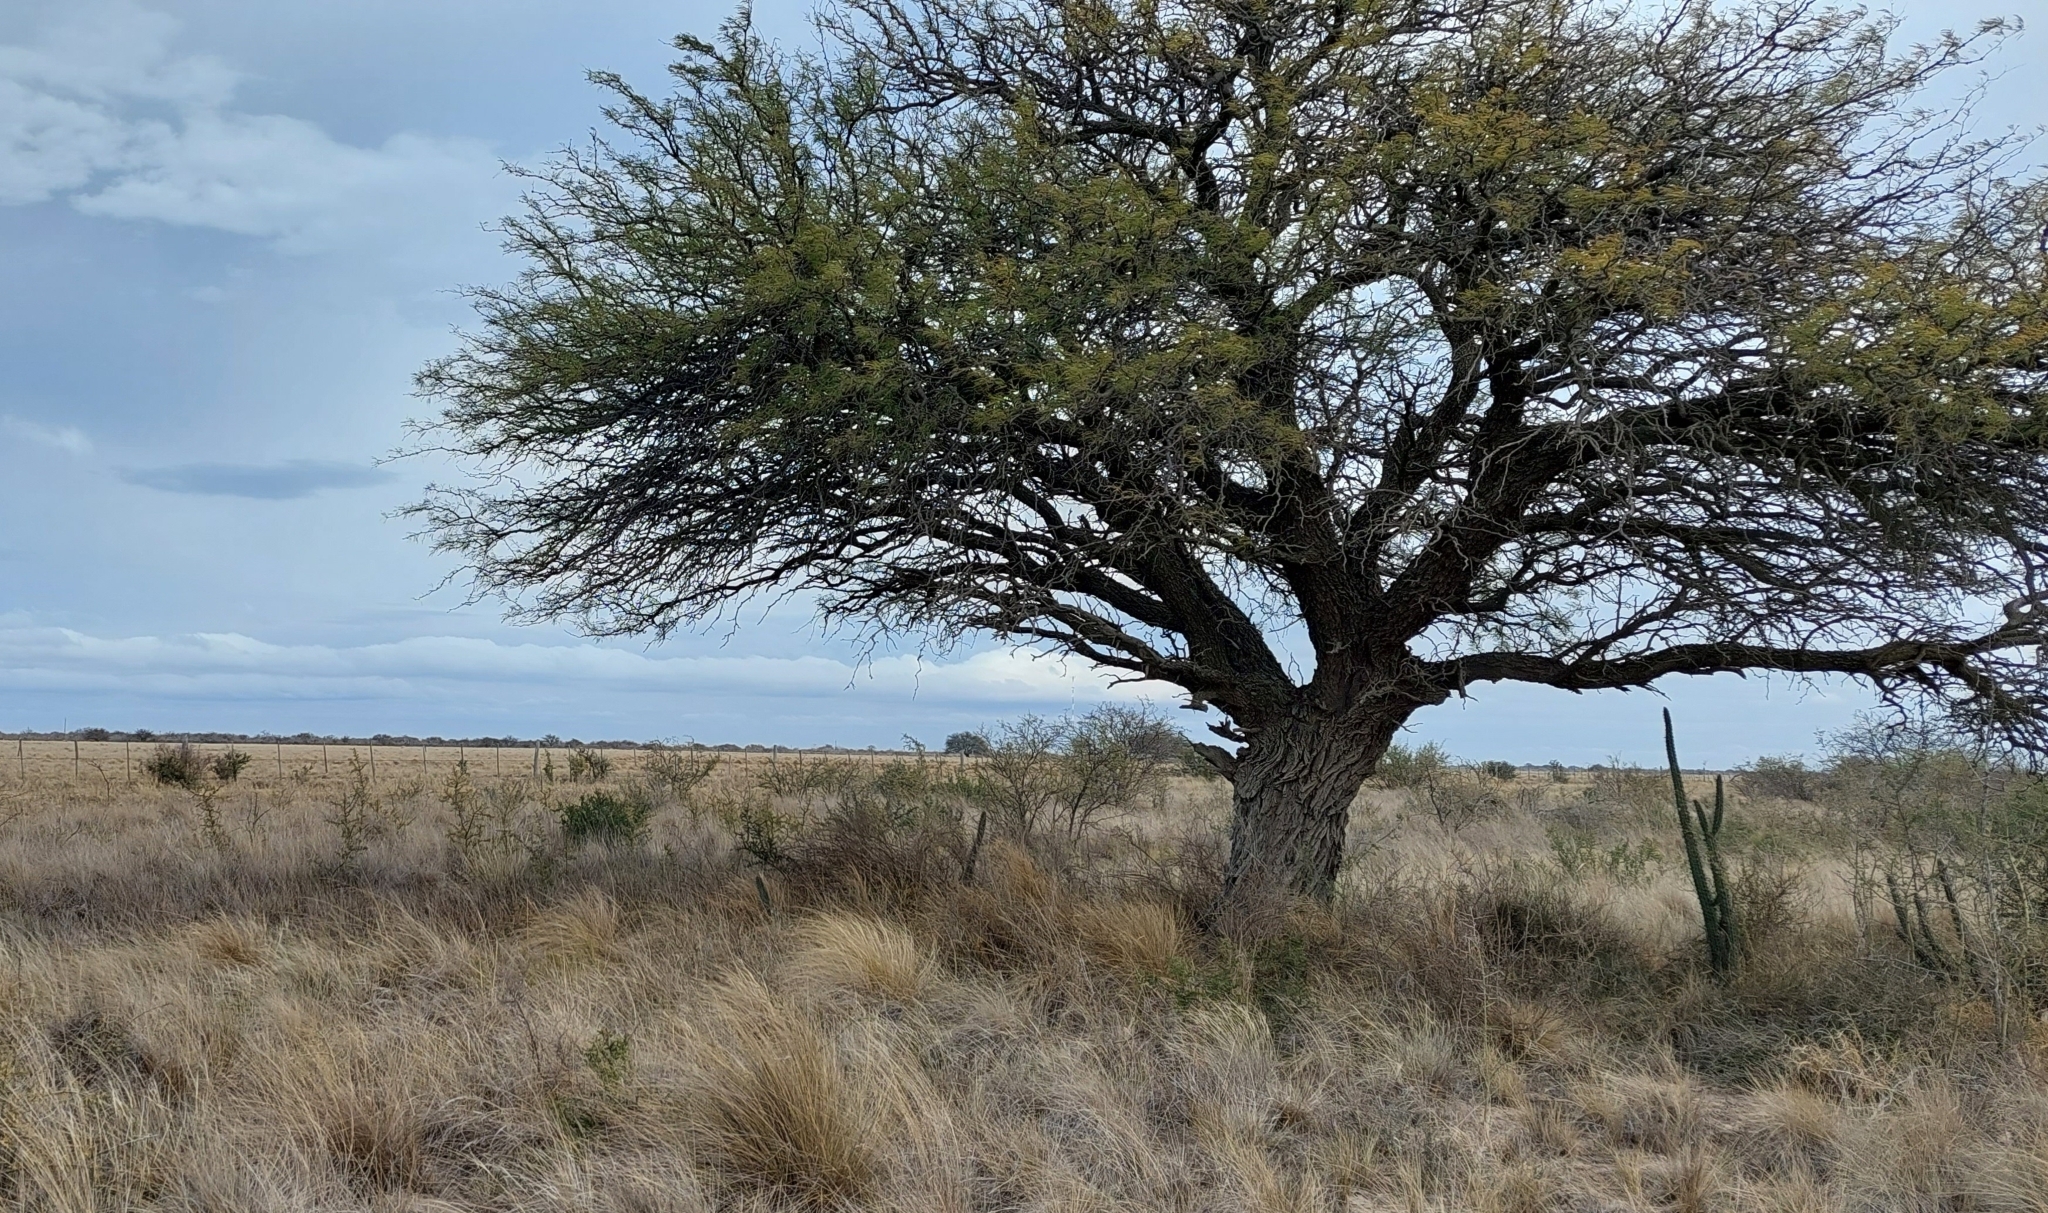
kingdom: Plantae
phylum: Tracheophyta
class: Magnoliopsida
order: Fabales
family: Fabaceae
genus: Prosopis
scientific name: Prosopis caldenia
